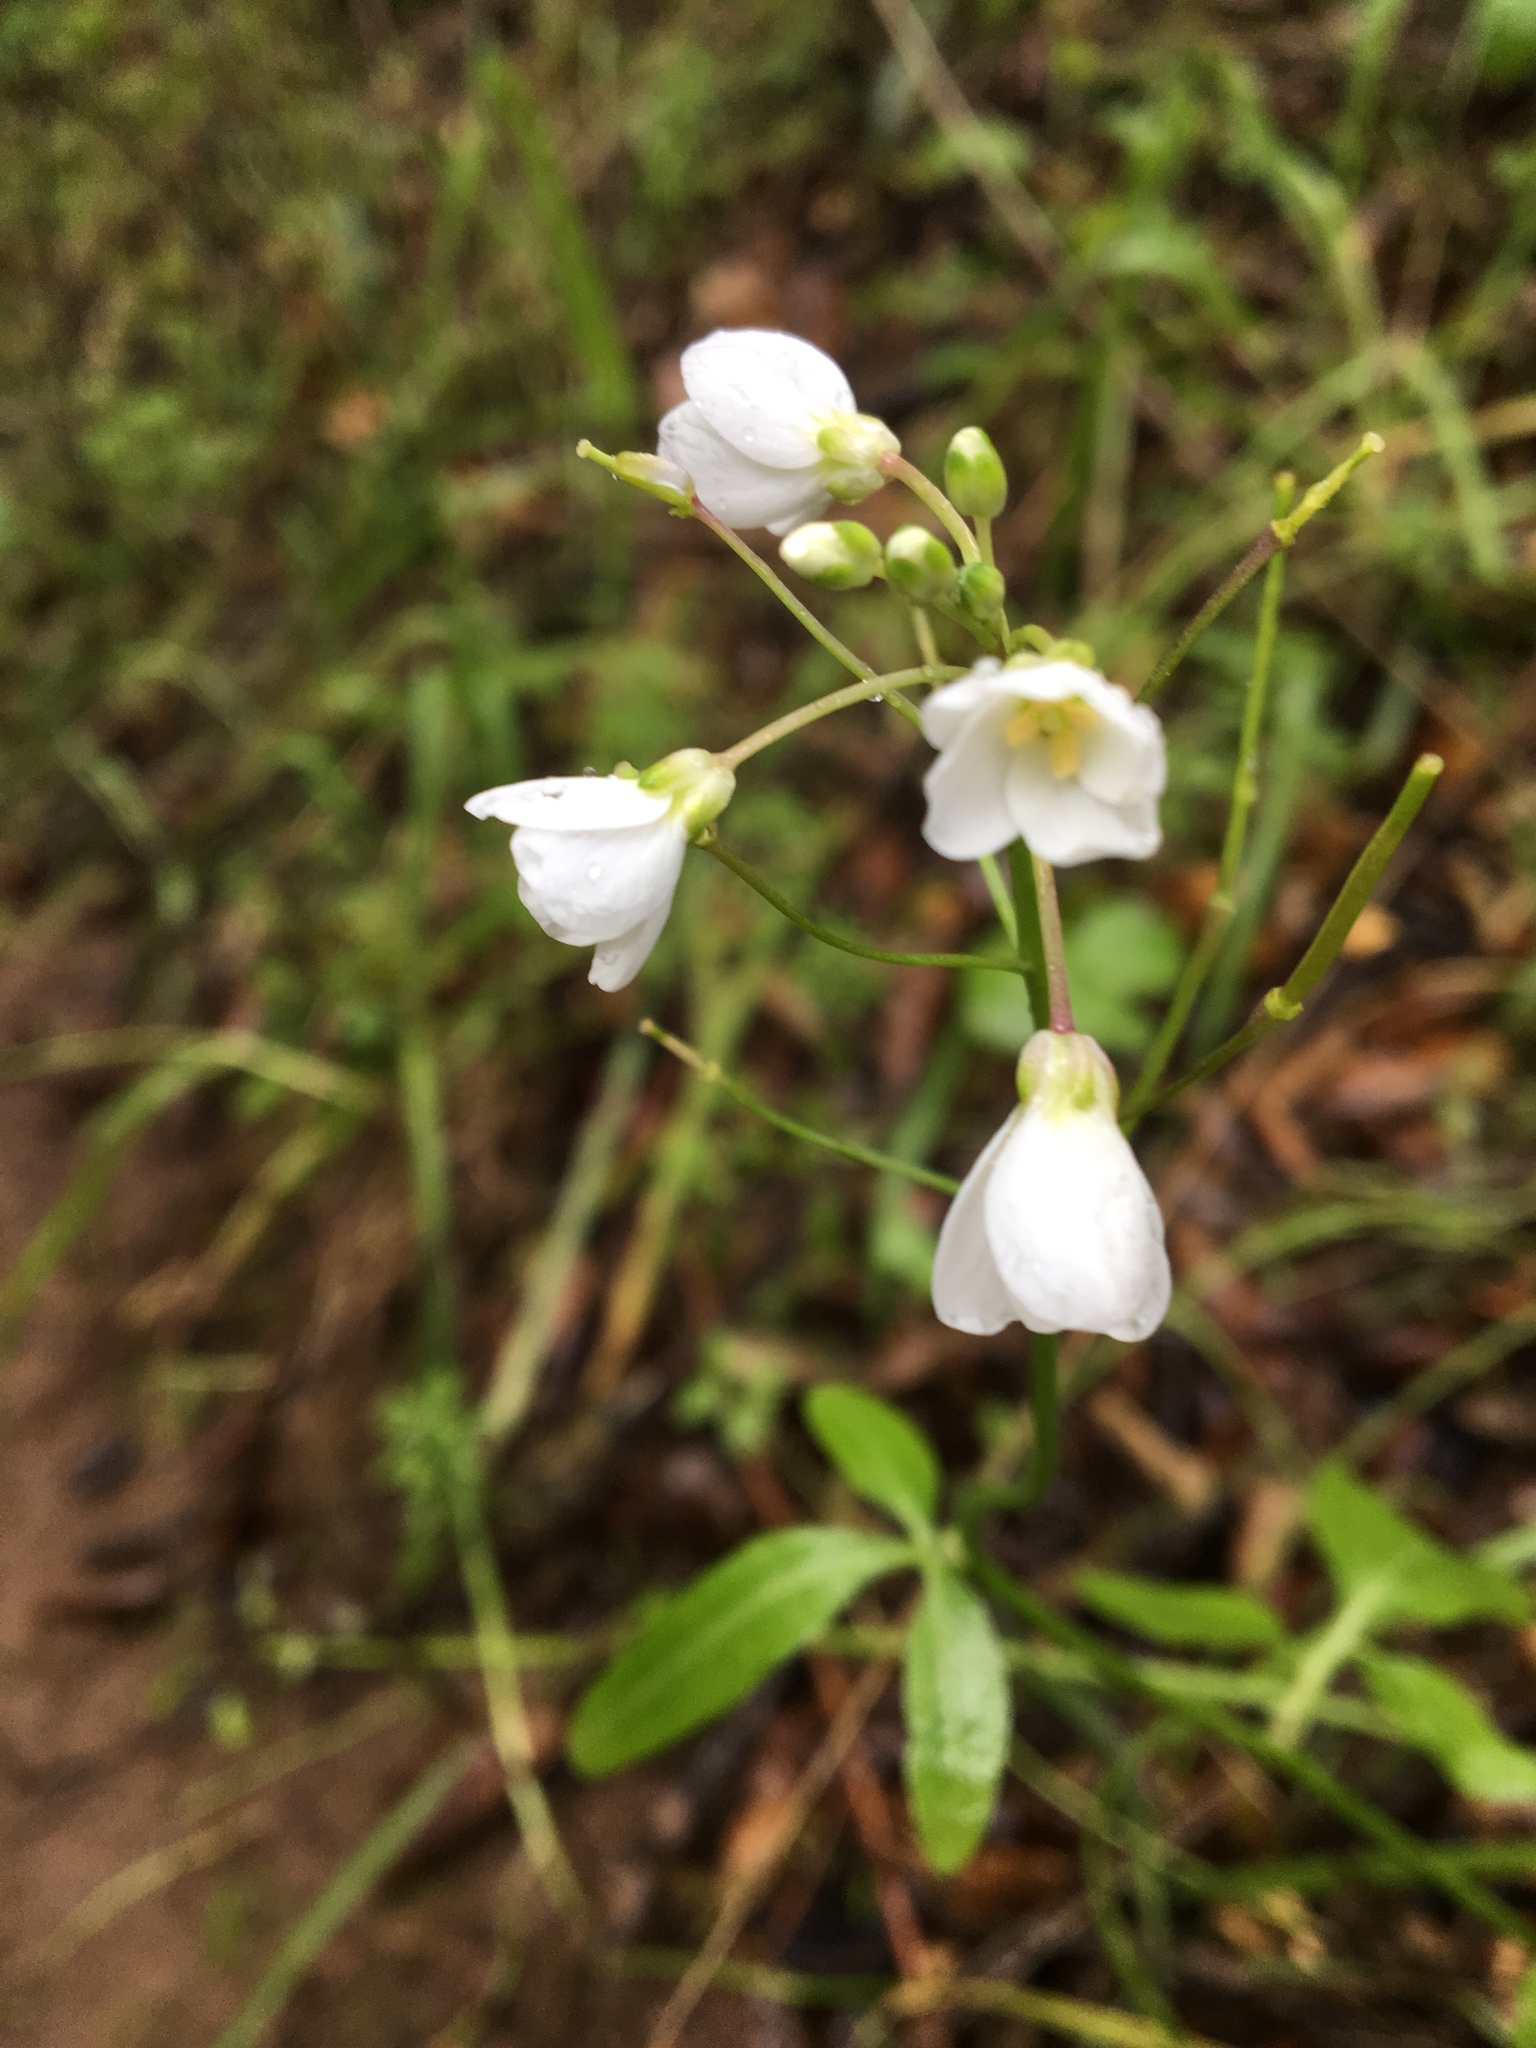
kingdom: Plantae
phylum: Tracheophyta
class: Magnoliopsida
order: Brassicales
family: Brassicaceae
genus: Cardamine
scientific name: Cardamine californica
